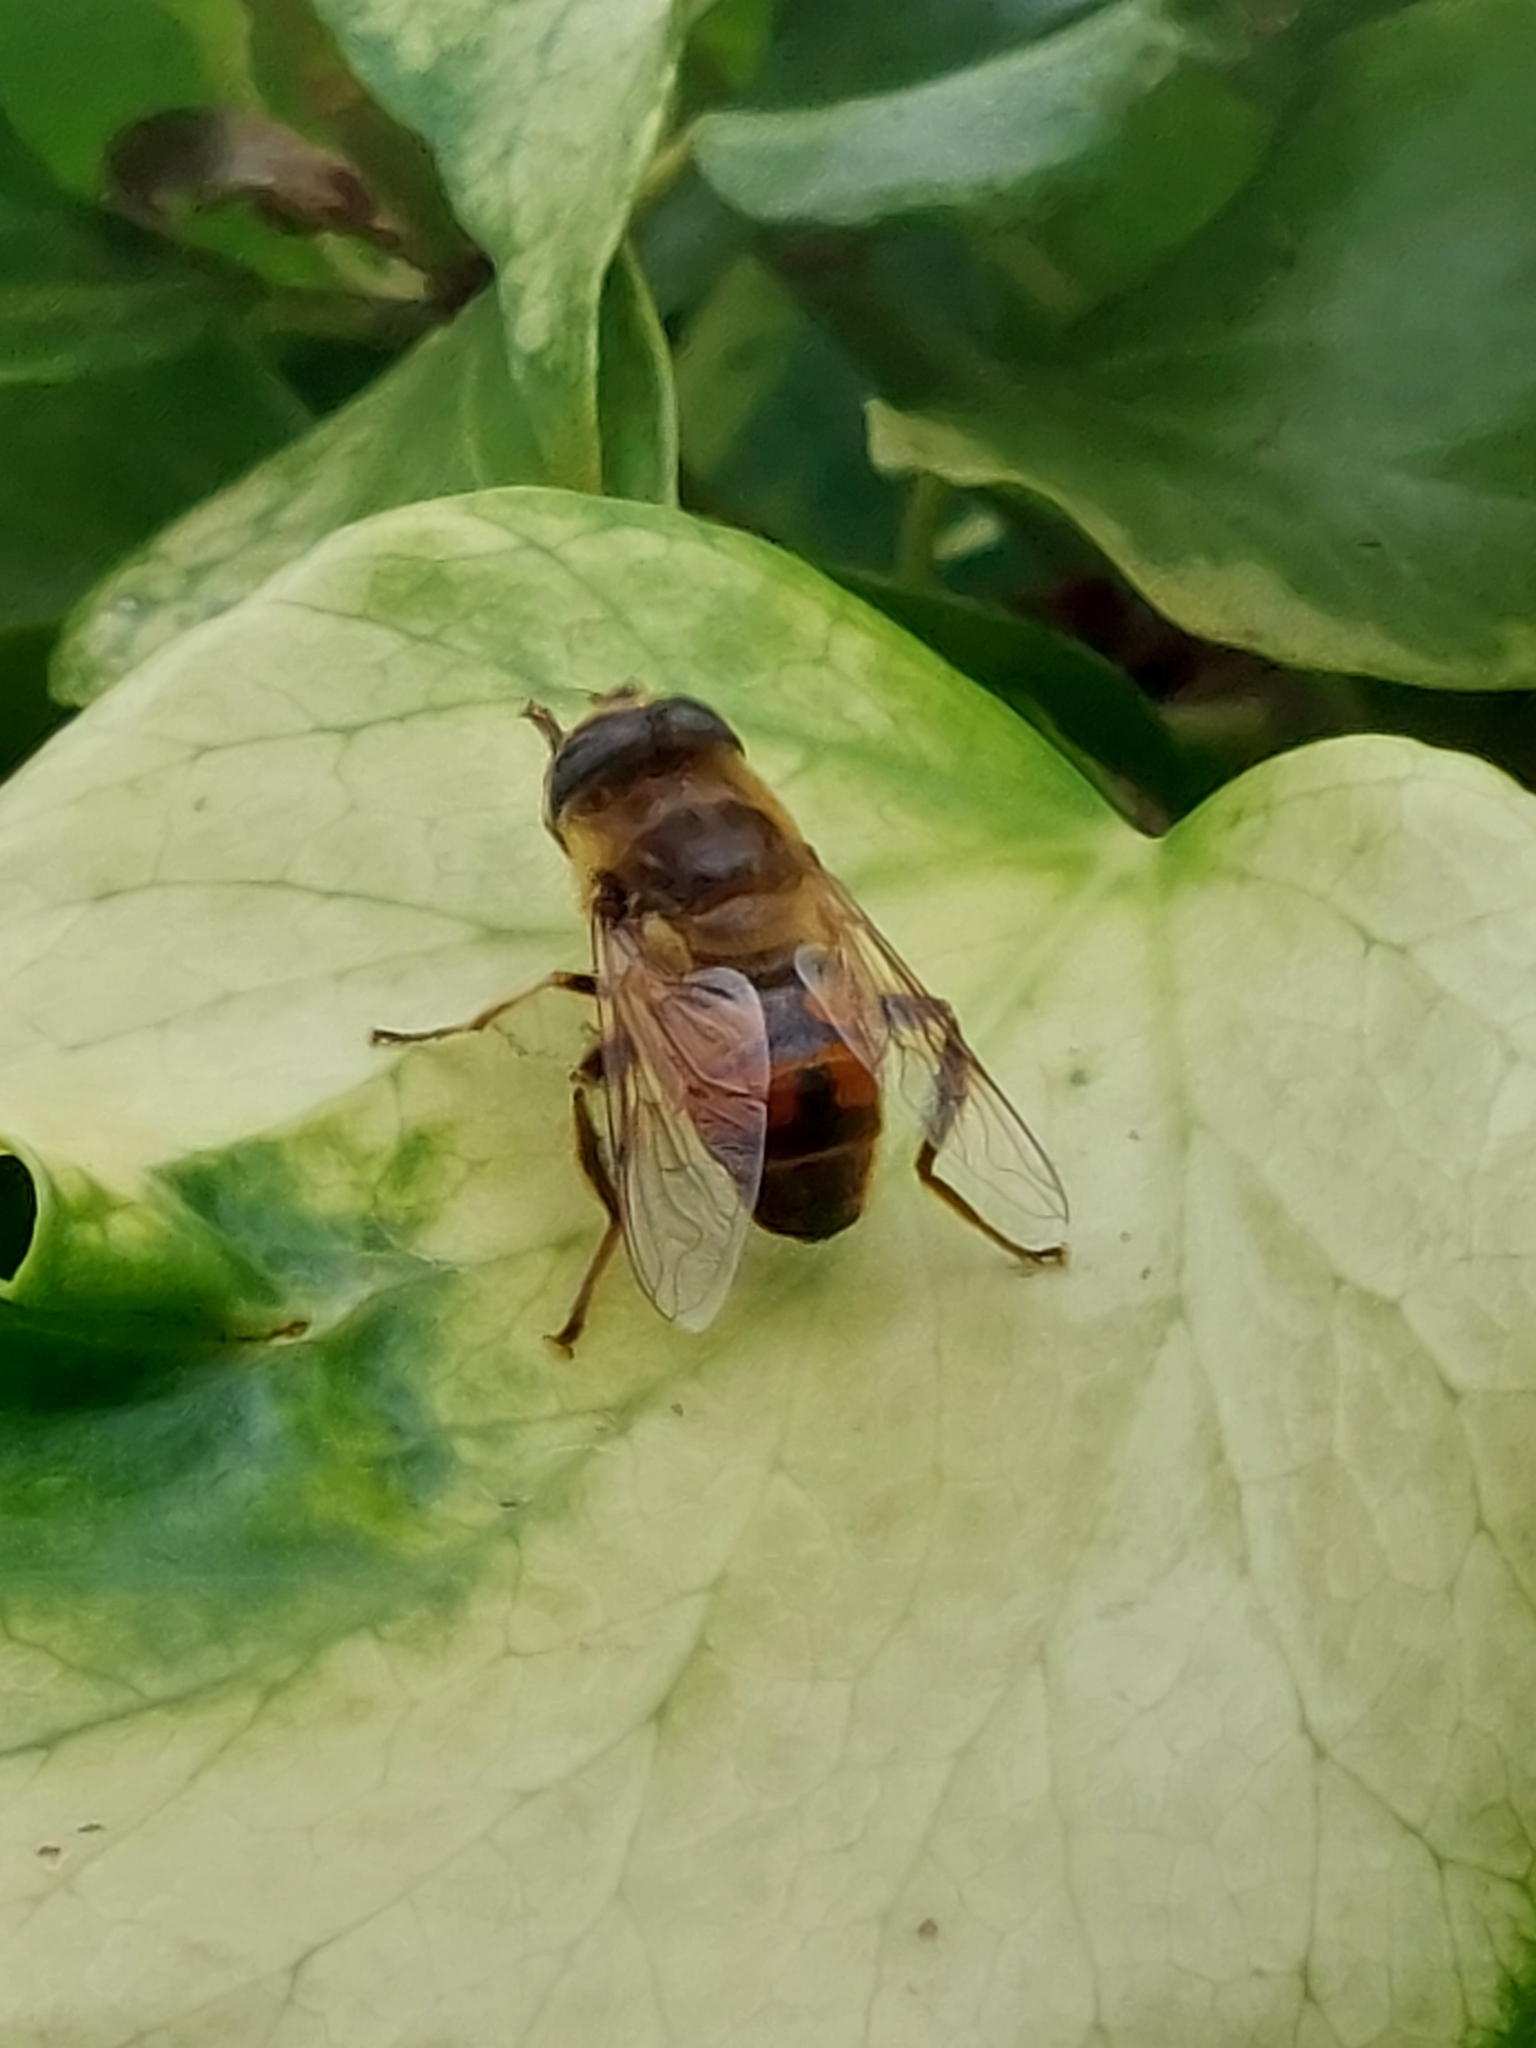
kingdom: Animalia
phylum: Arthropoda
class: Insecta
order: Diptera
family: Syrphidae
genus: Eristalis
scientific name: Eristalis tenax
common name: Drone fly
